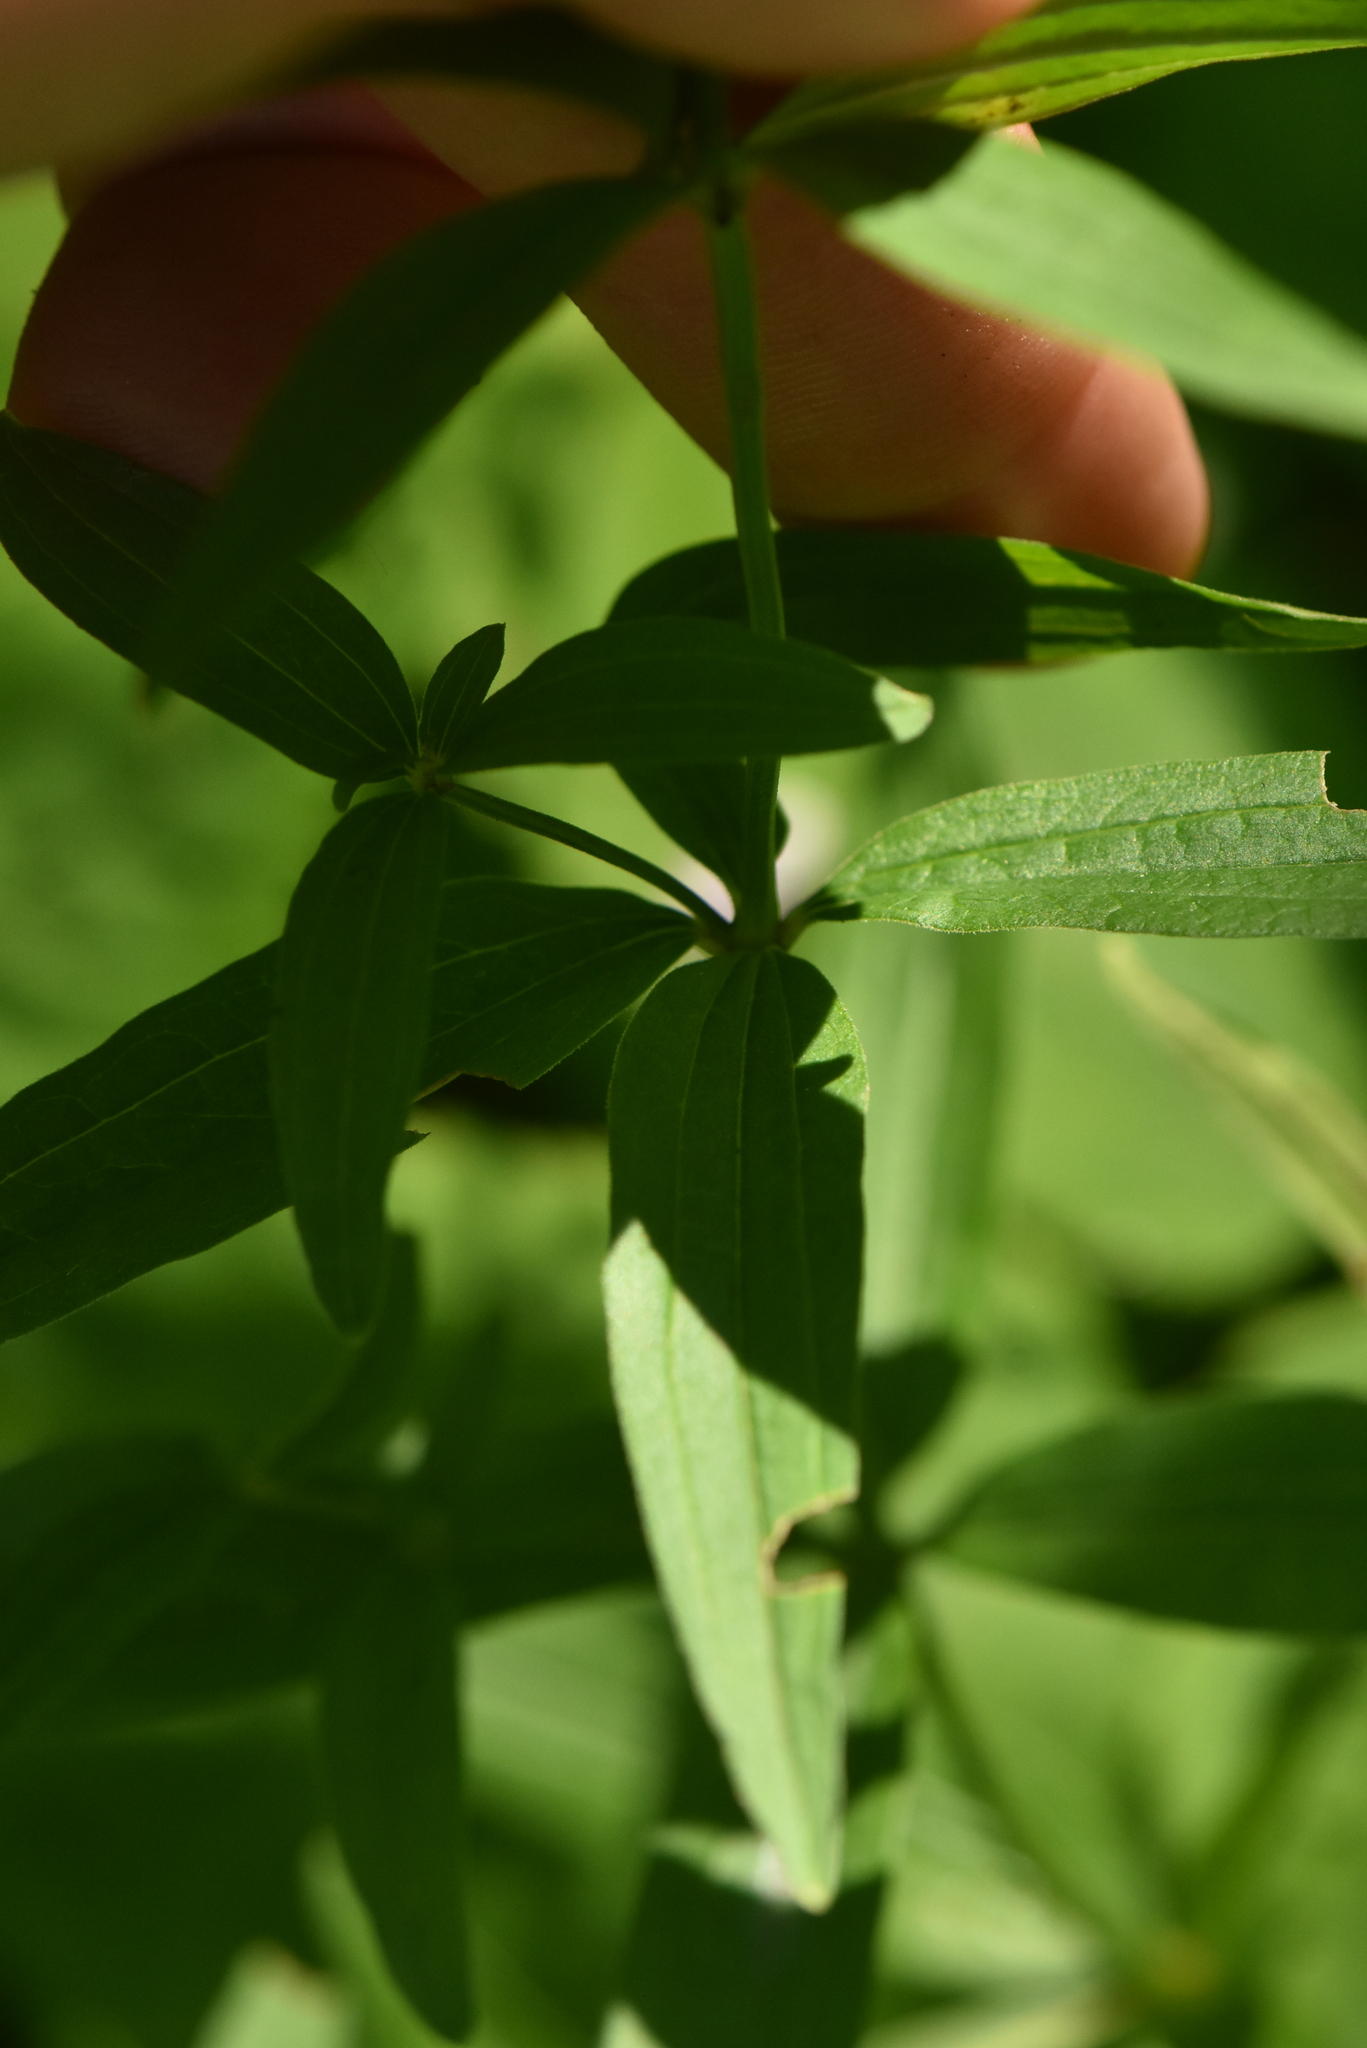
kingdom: Plantae
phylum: Tracheophyta
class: Magnoliopsida
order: Gentianales
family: Rubiaceae
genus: Galium
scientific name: Galium boreale
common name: Northern bedstraw
